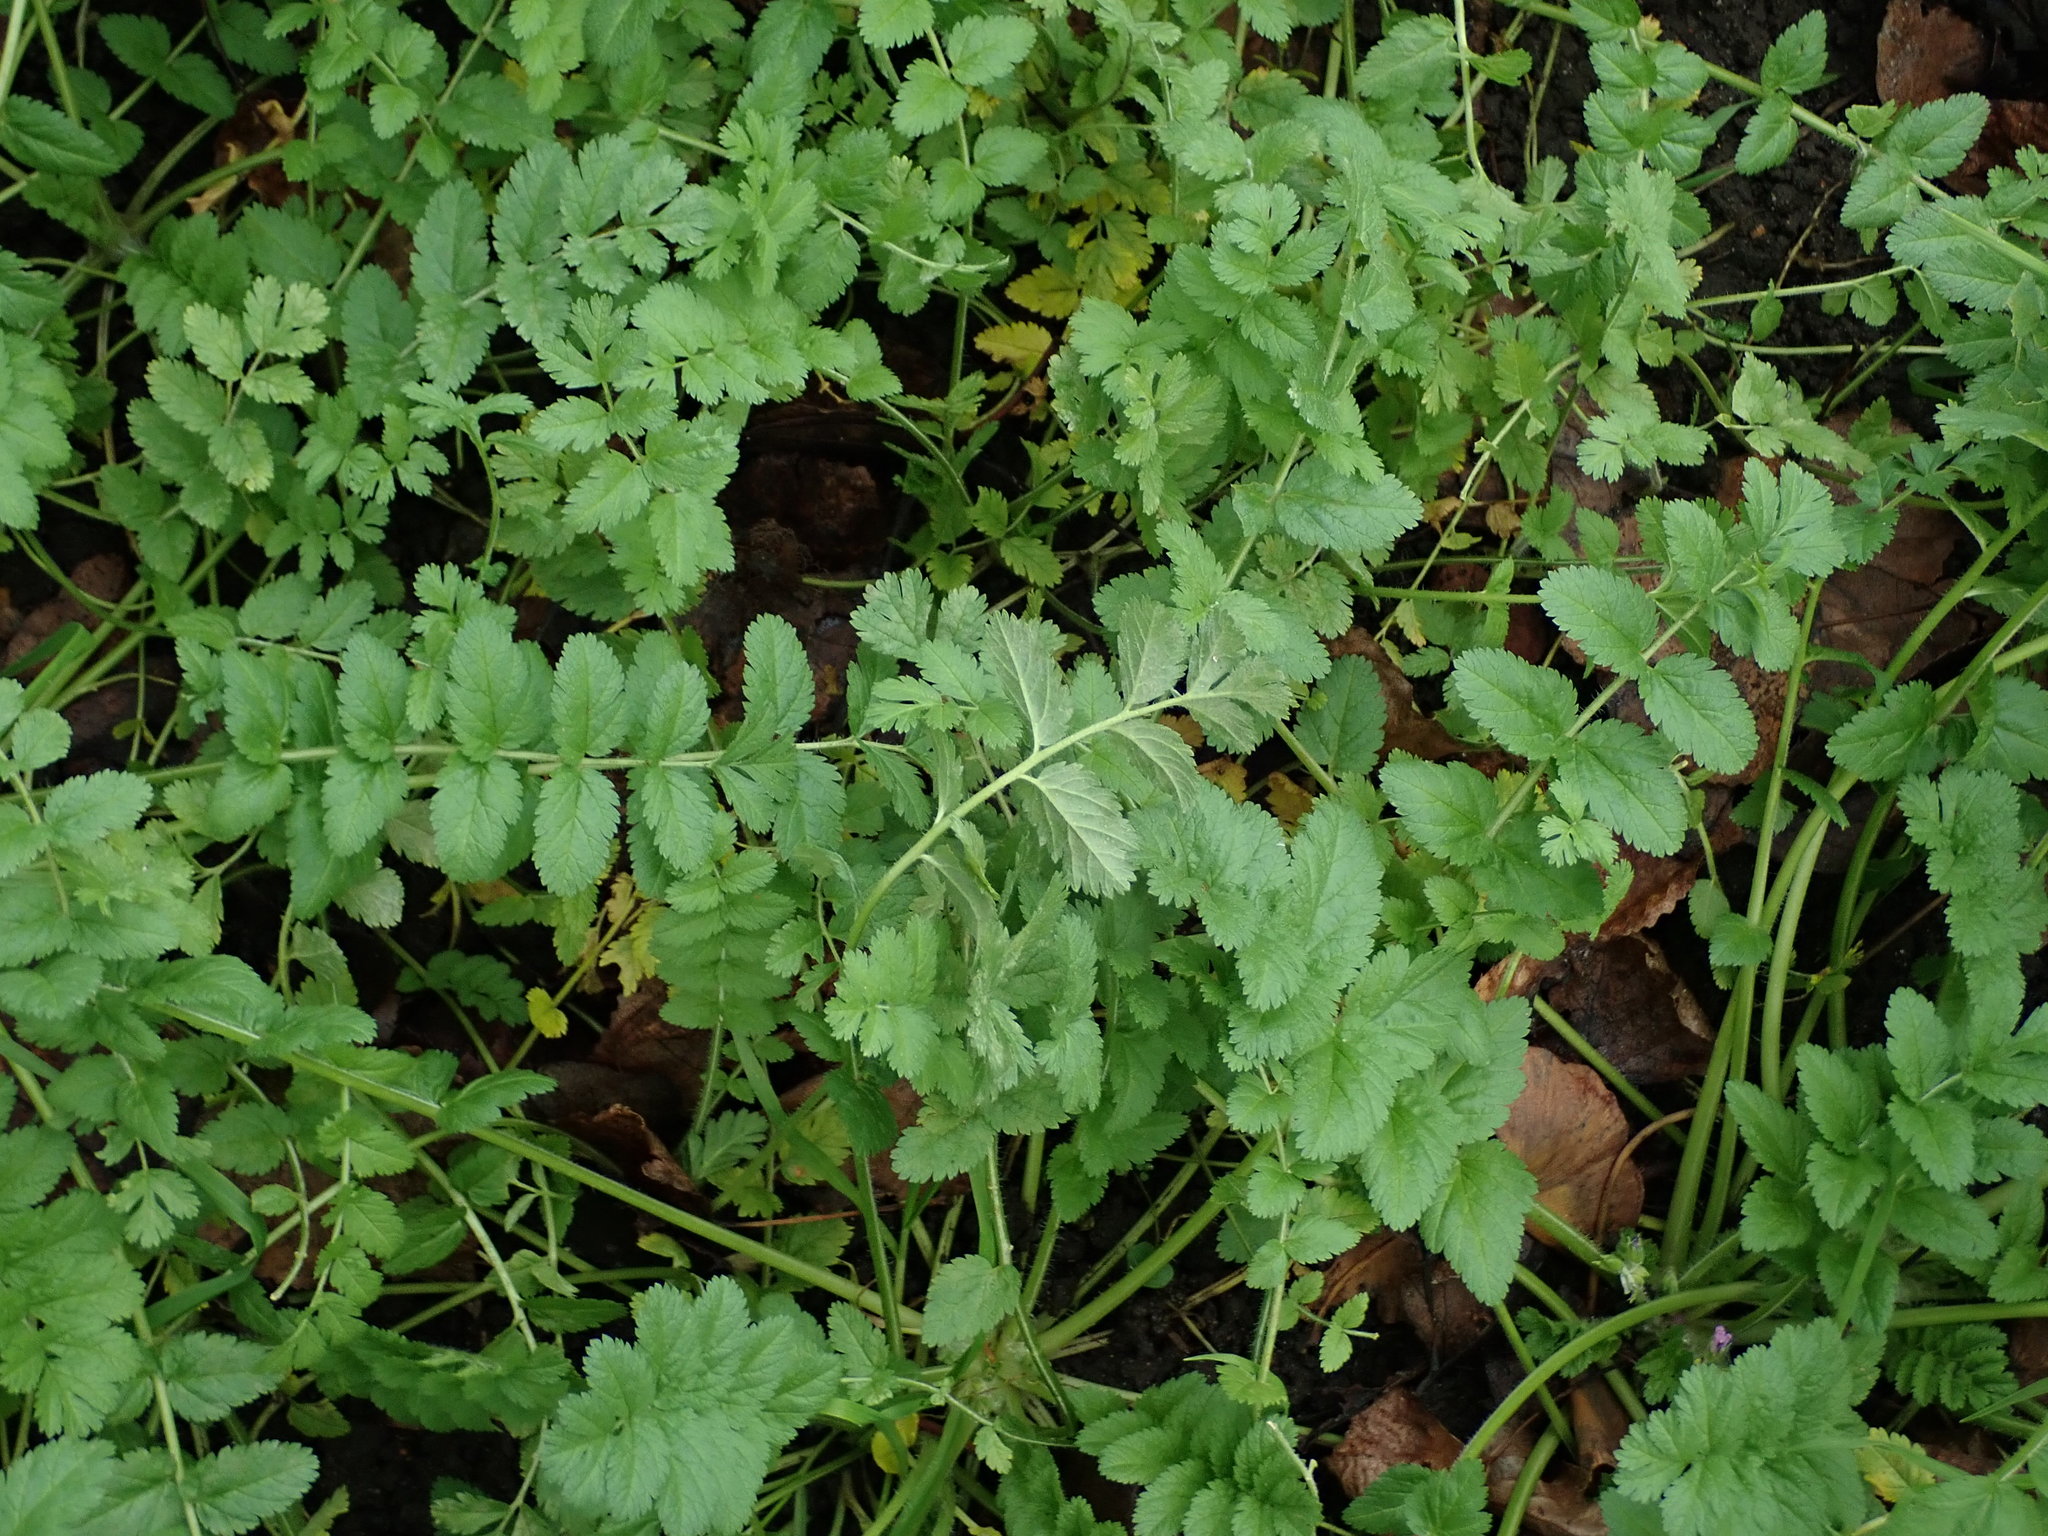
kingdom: Plantae
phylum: Tracheophyta
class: Magnoliopsida
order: Geraniales
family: Geraniaceae
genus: Erodium
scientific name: Erodium moschatum
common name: Musk stork's-bill
